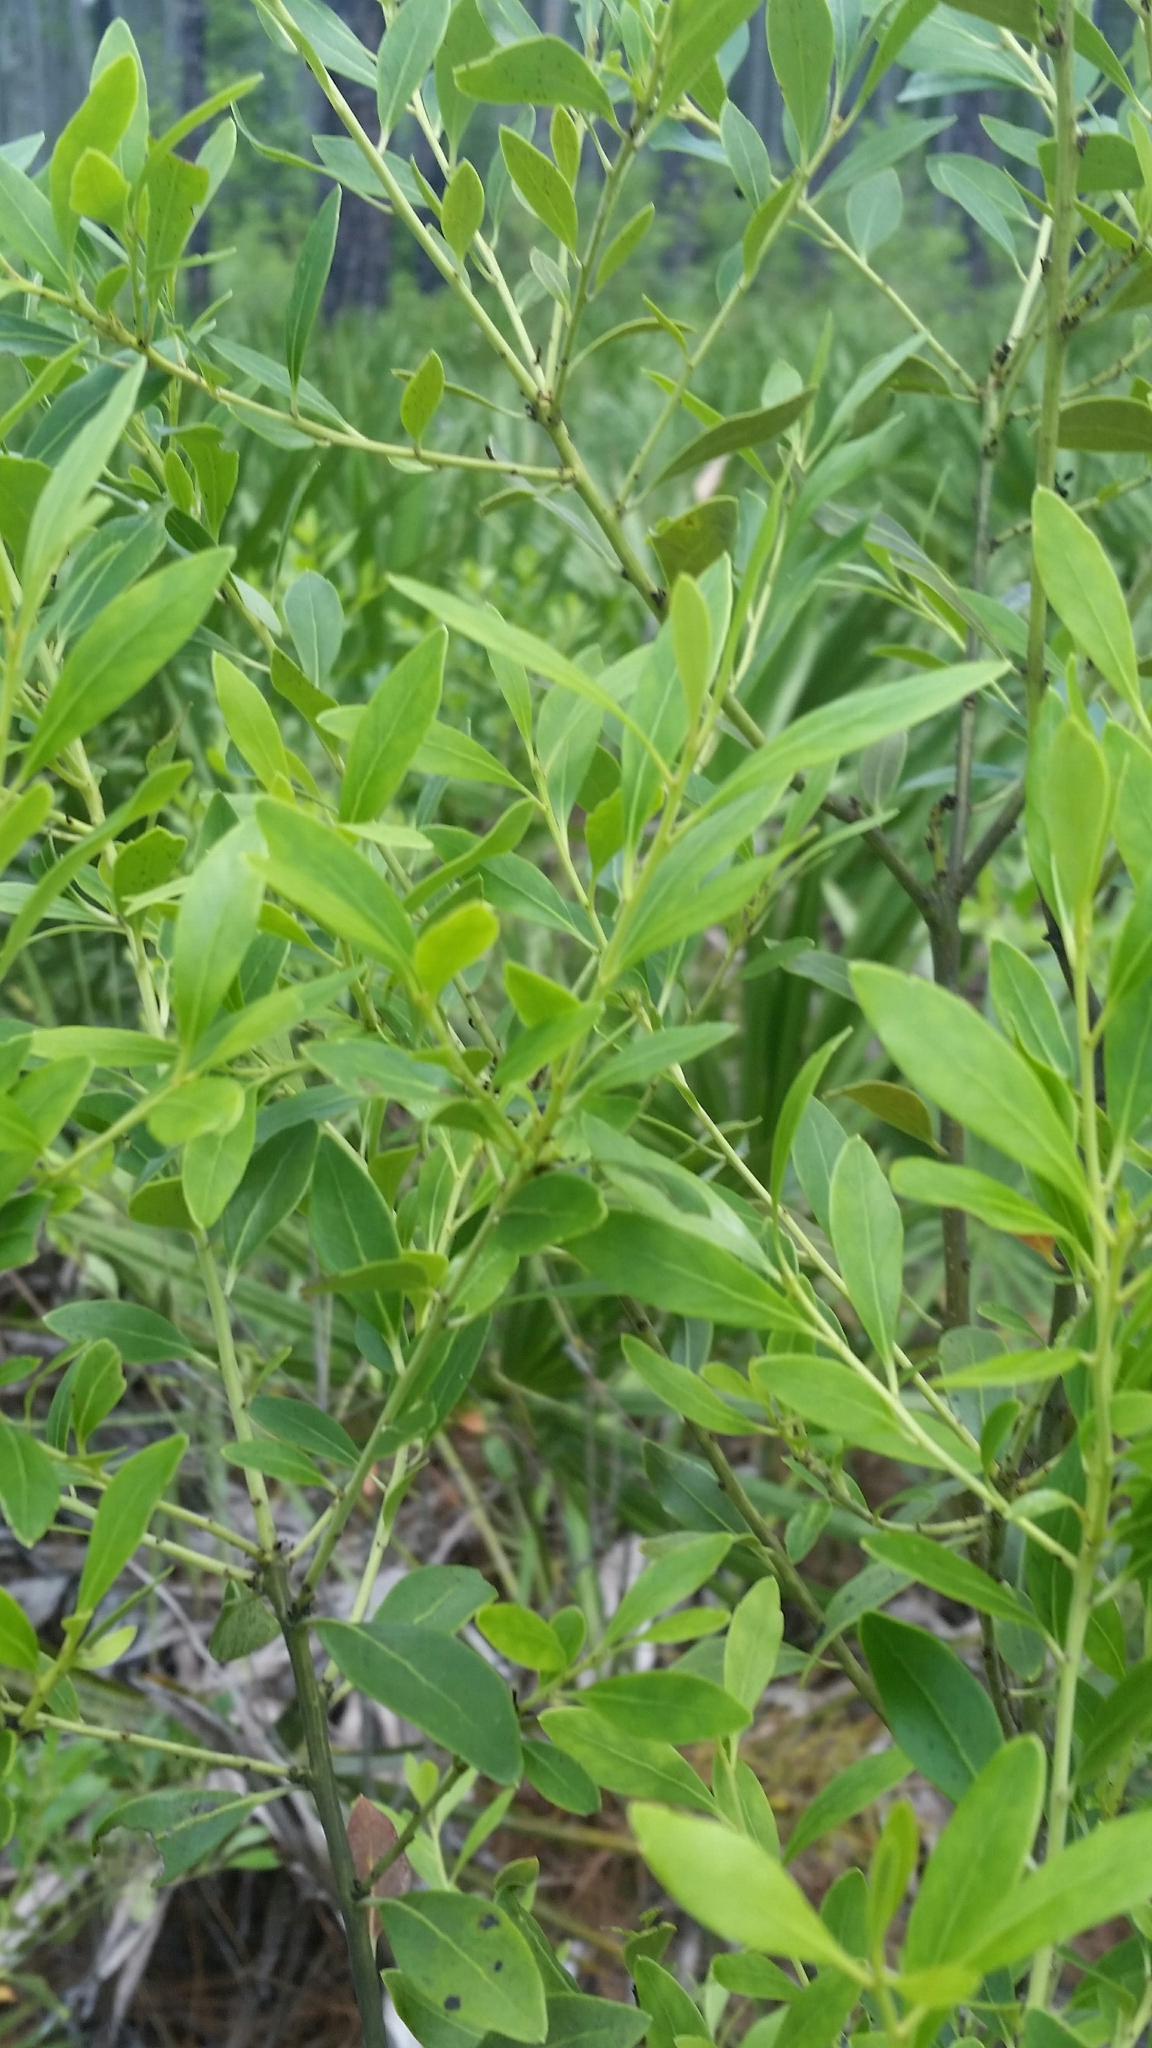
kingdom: Plantae
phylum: Tracheophyta
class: Magnoliopsida
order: Aquifoliales
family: Aquifoliaceae
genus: Ilex
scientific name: Ilex glabra
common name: Bitter gallberry
